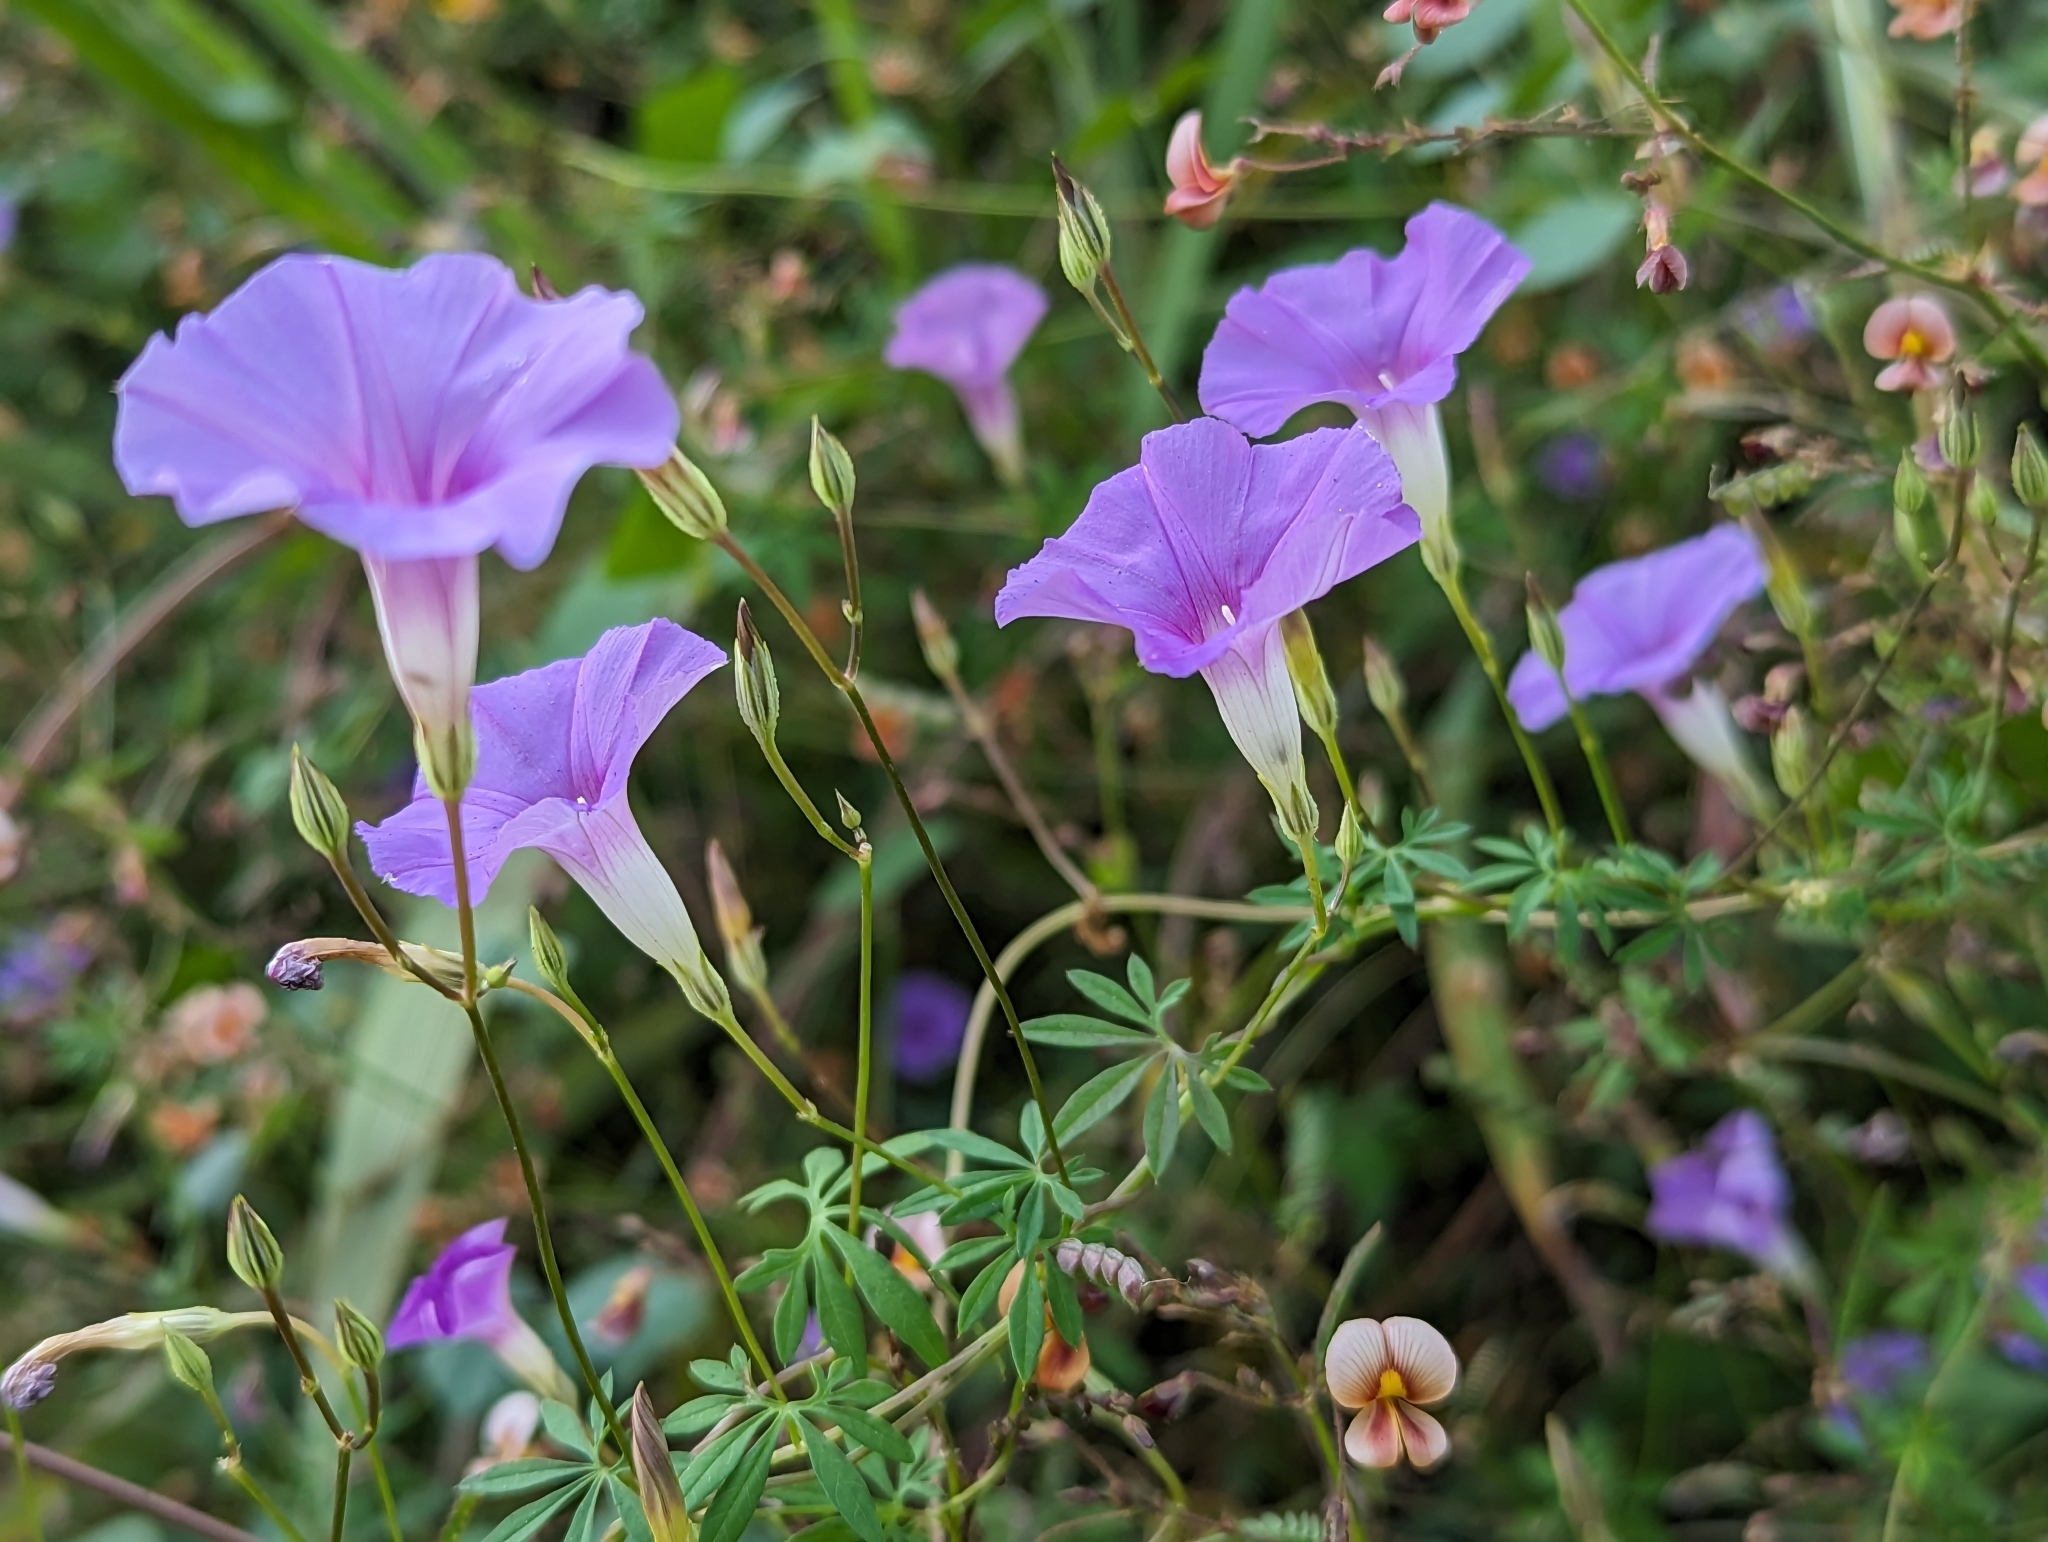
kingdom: Plantae
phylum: Tracheophyta
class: Magnoliopsida
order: Solanales
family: Convolvulaceae
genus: Ipomoea
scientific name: Ipomoea ternifolia
